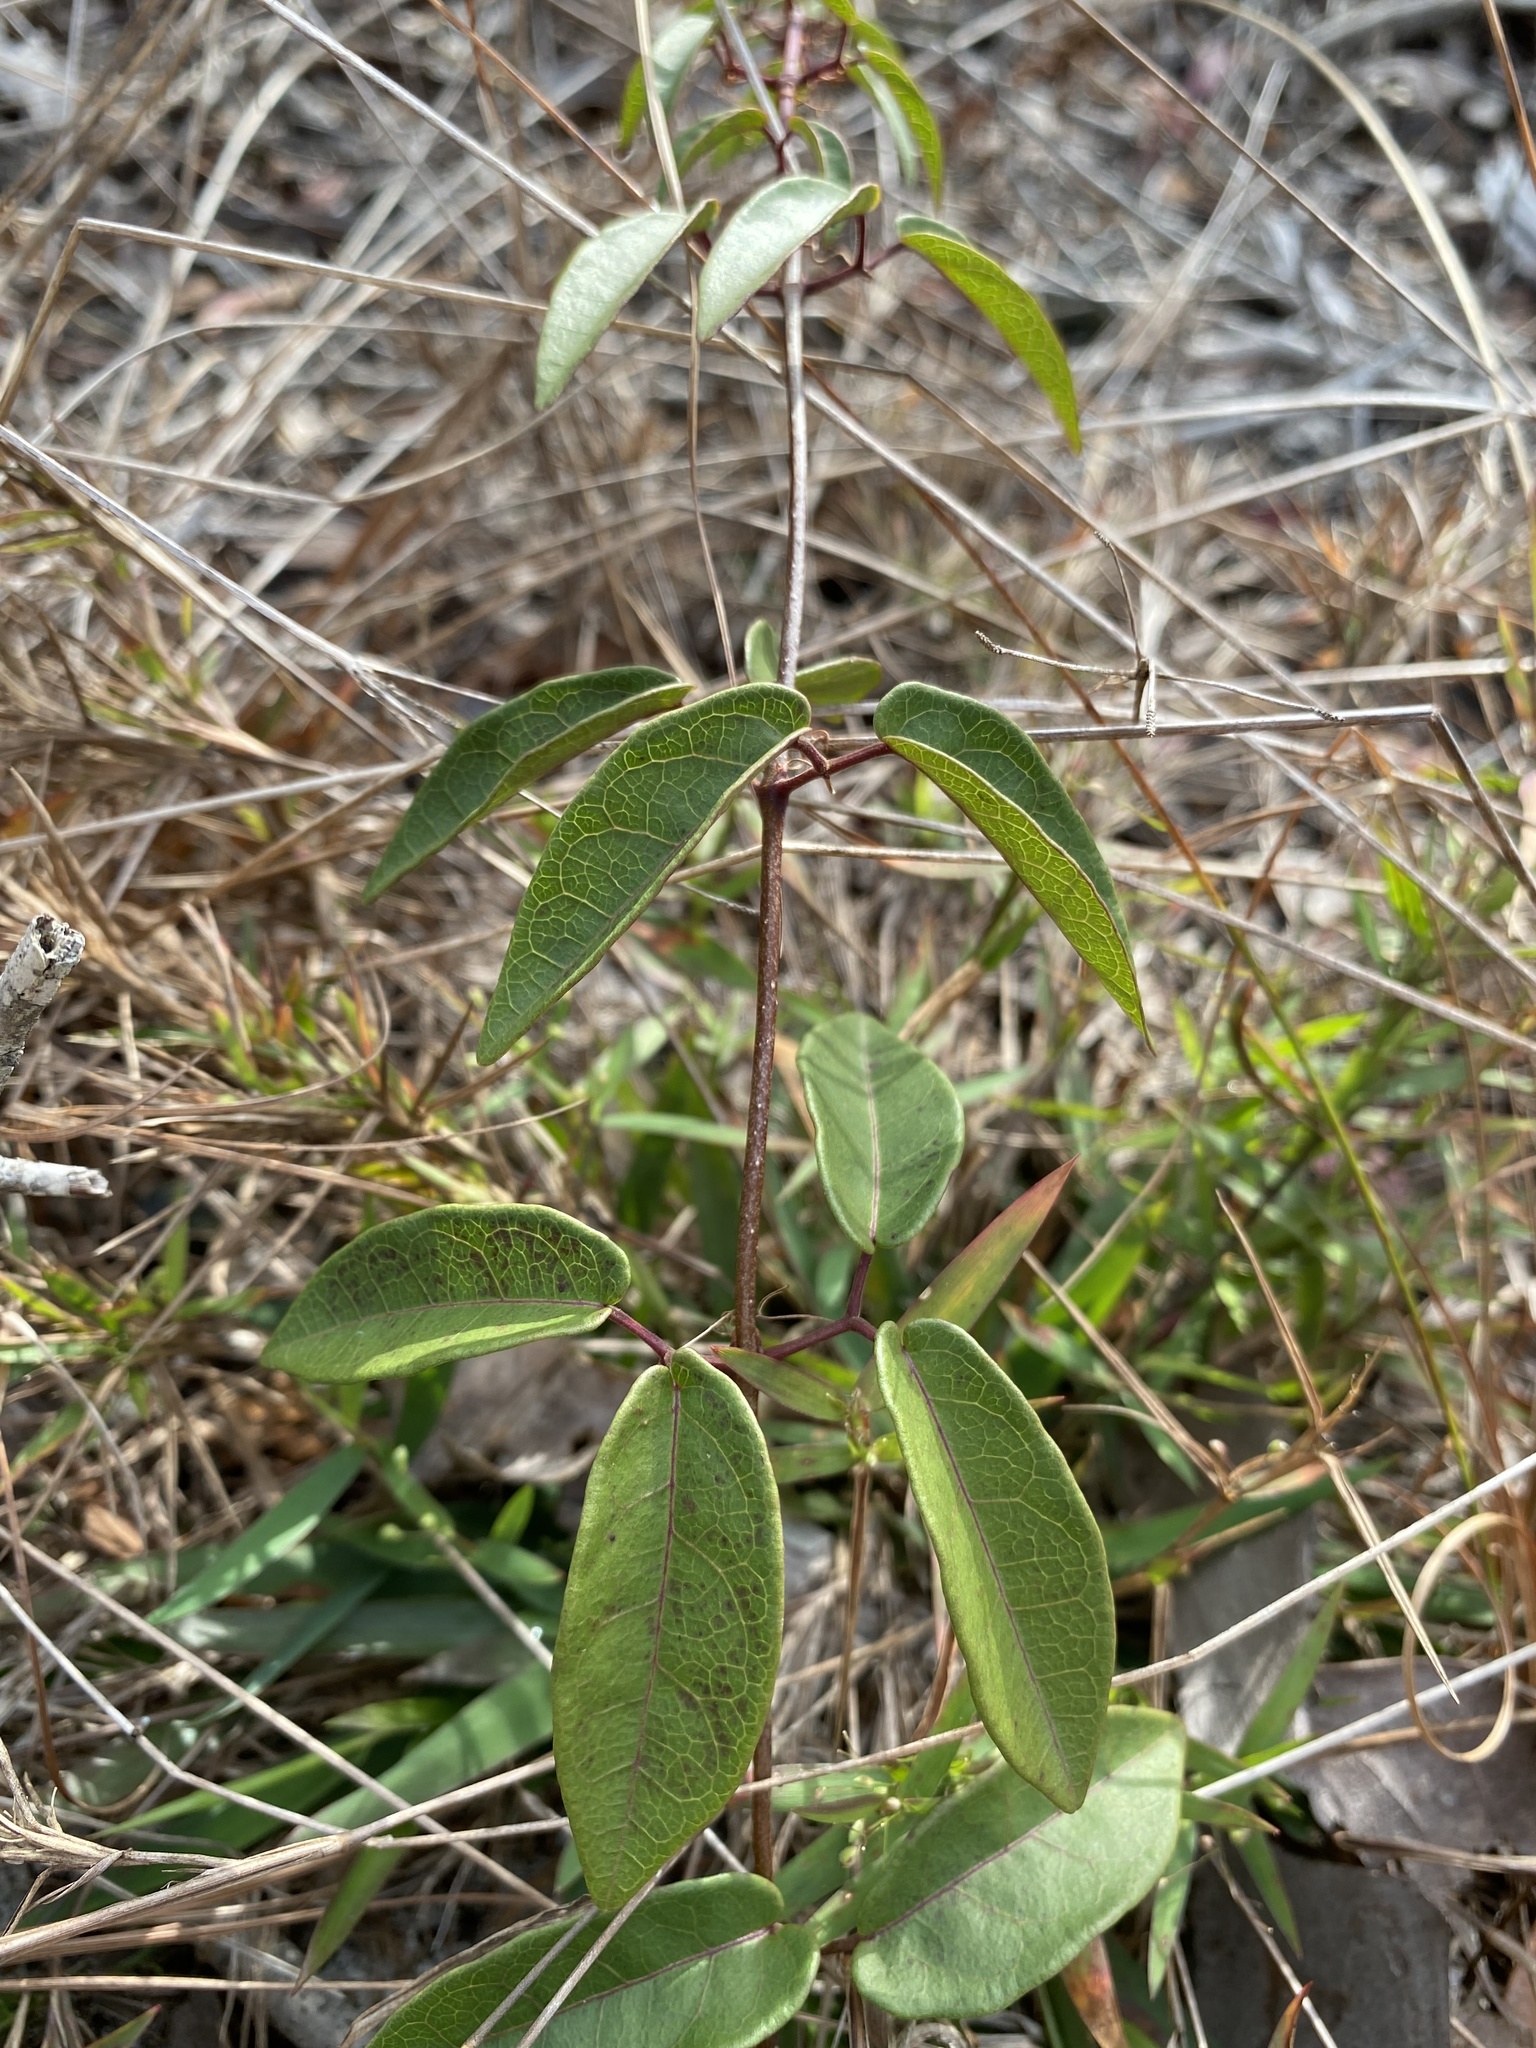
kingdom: Plantae
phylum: Tracheophyta
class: Magnoliopsida
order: Lamiales
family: Bignoniaceae
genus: Bignonia
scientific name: Bignonia capreolata
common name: Crossvine
